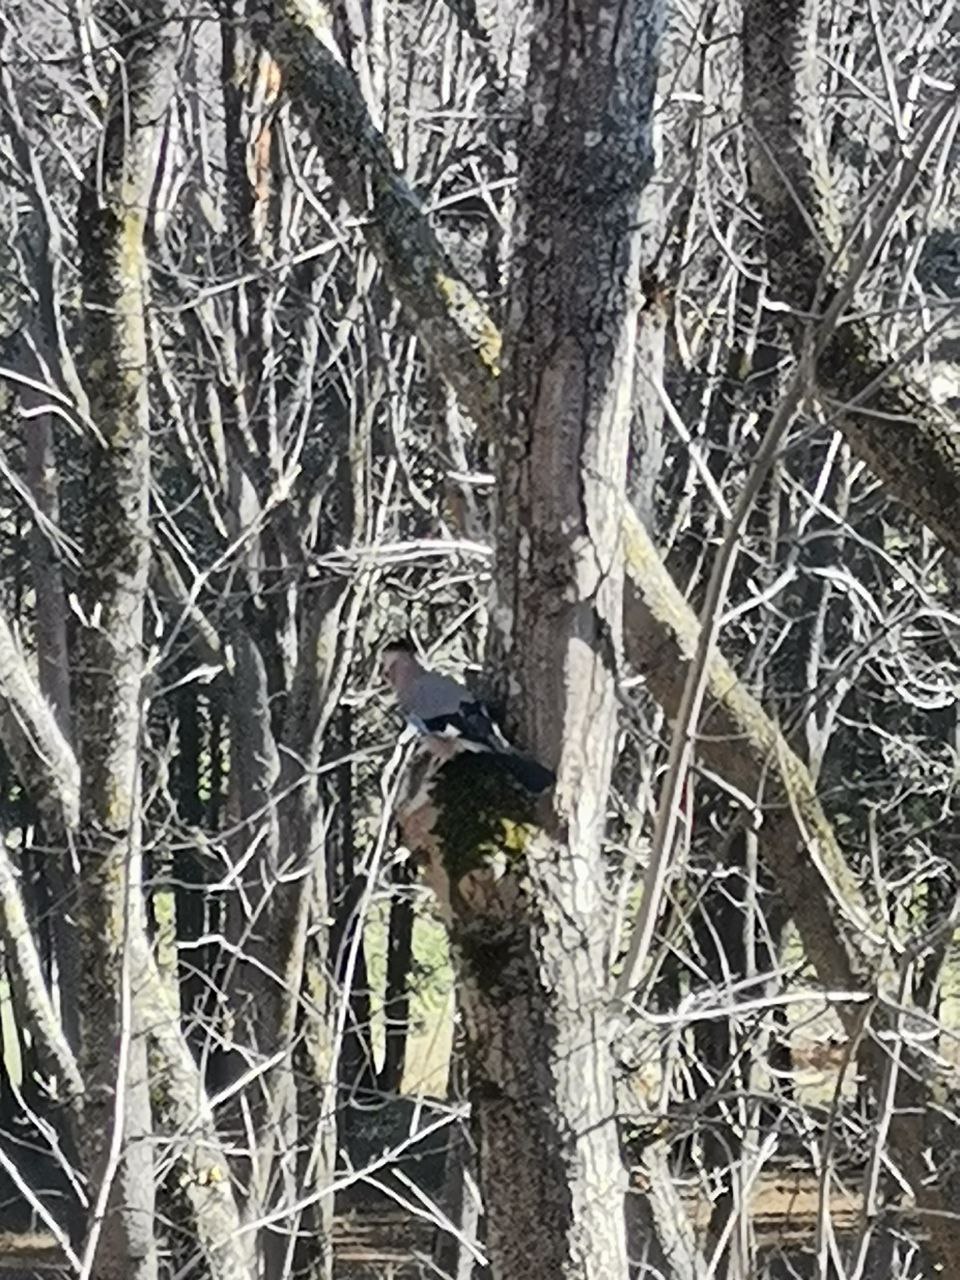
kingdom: Animalia
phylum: Chordata
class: Aves
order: Passeriformes
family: Corvidae
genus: Garrulus
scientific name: Garrulus glandarius
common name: Eurasian jay
